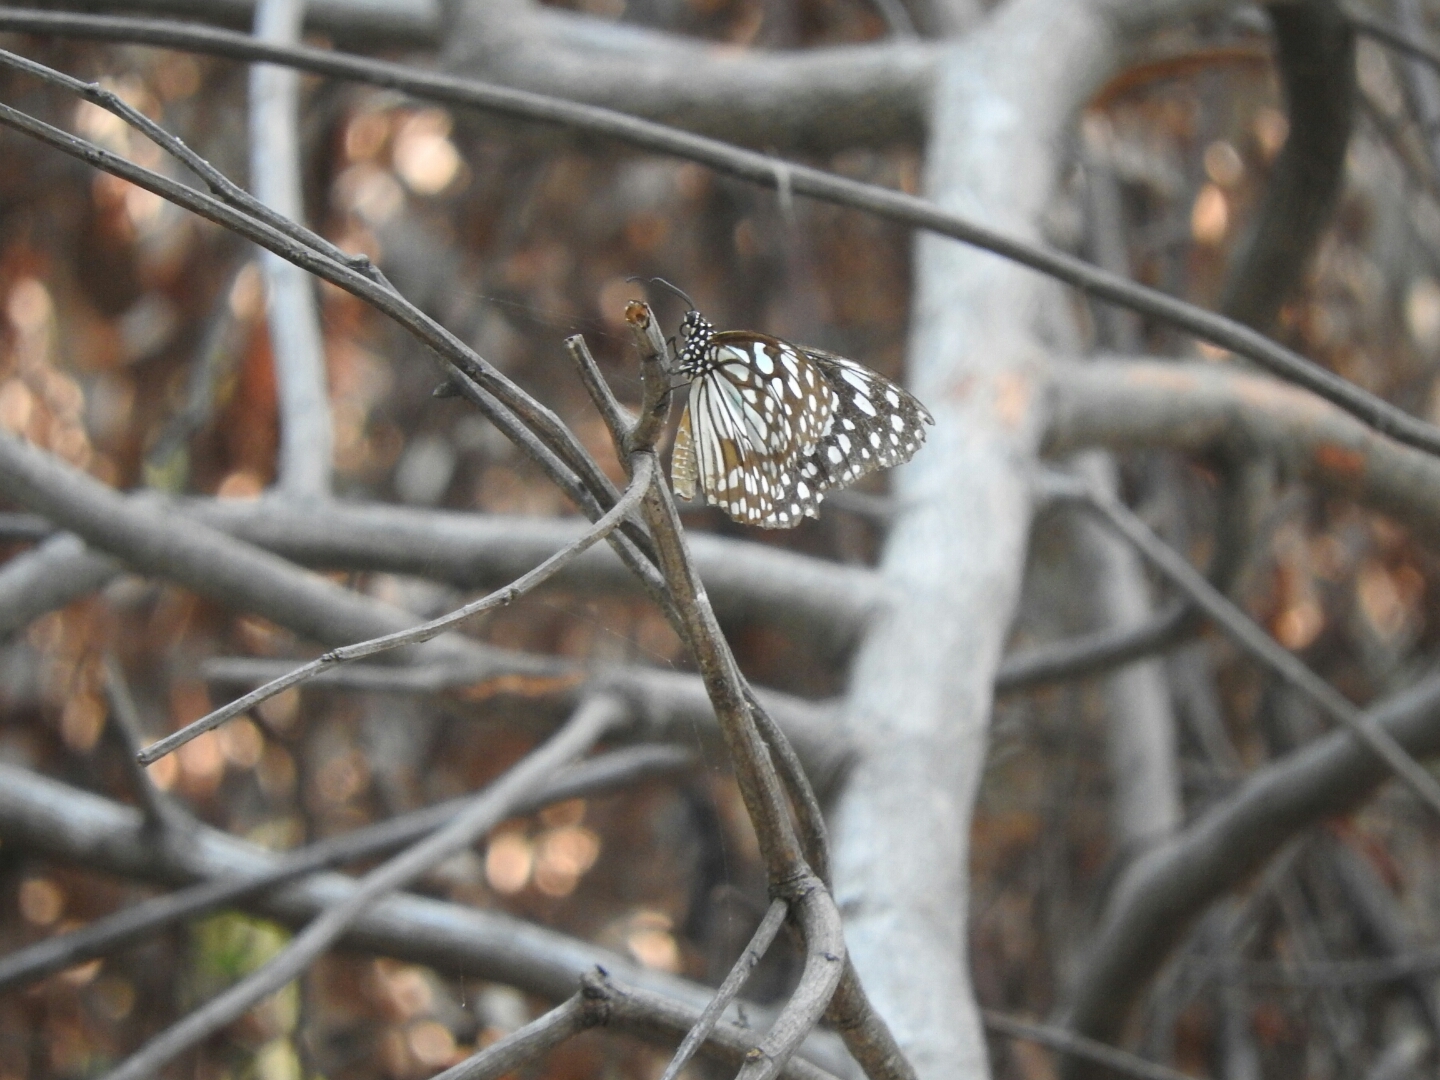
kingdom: Animalia
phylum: Arthropoda
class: Insecta
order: Lepidoptera
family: Nymphalidae
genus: Tirumala
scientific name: Tirumala limniace
